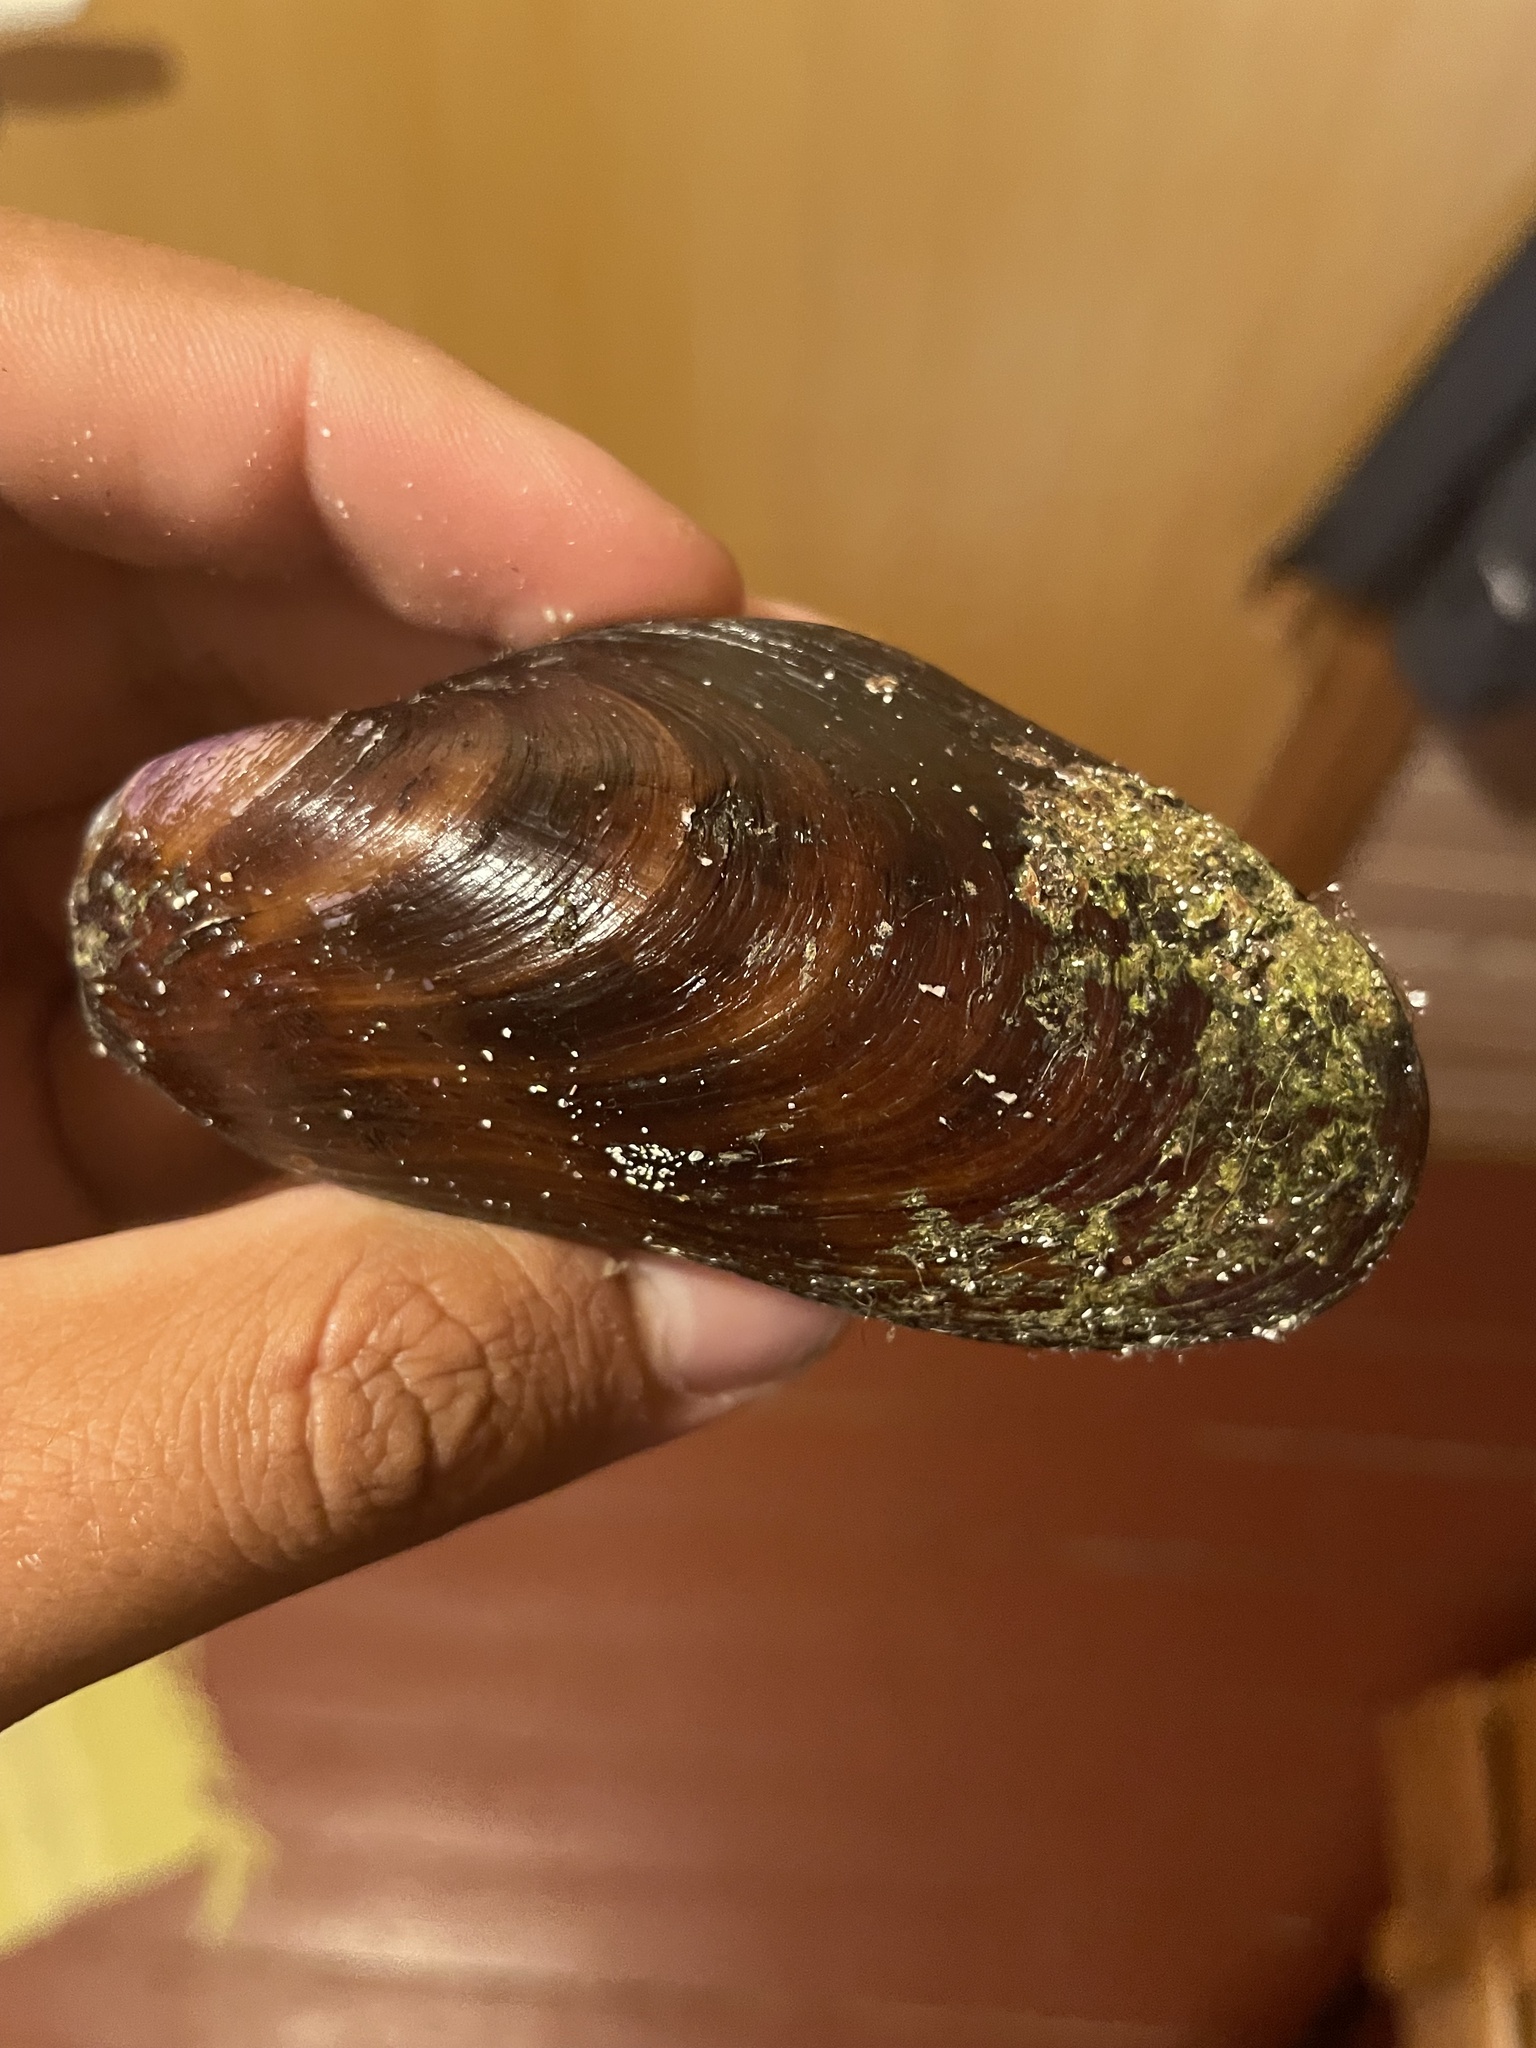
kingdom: Animalia
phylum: Mollusca
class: Bivalvia
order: Mytilida
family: Mytilidae
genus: Modiolus
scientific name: Modiolus modiolus
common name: Horse-mussel
